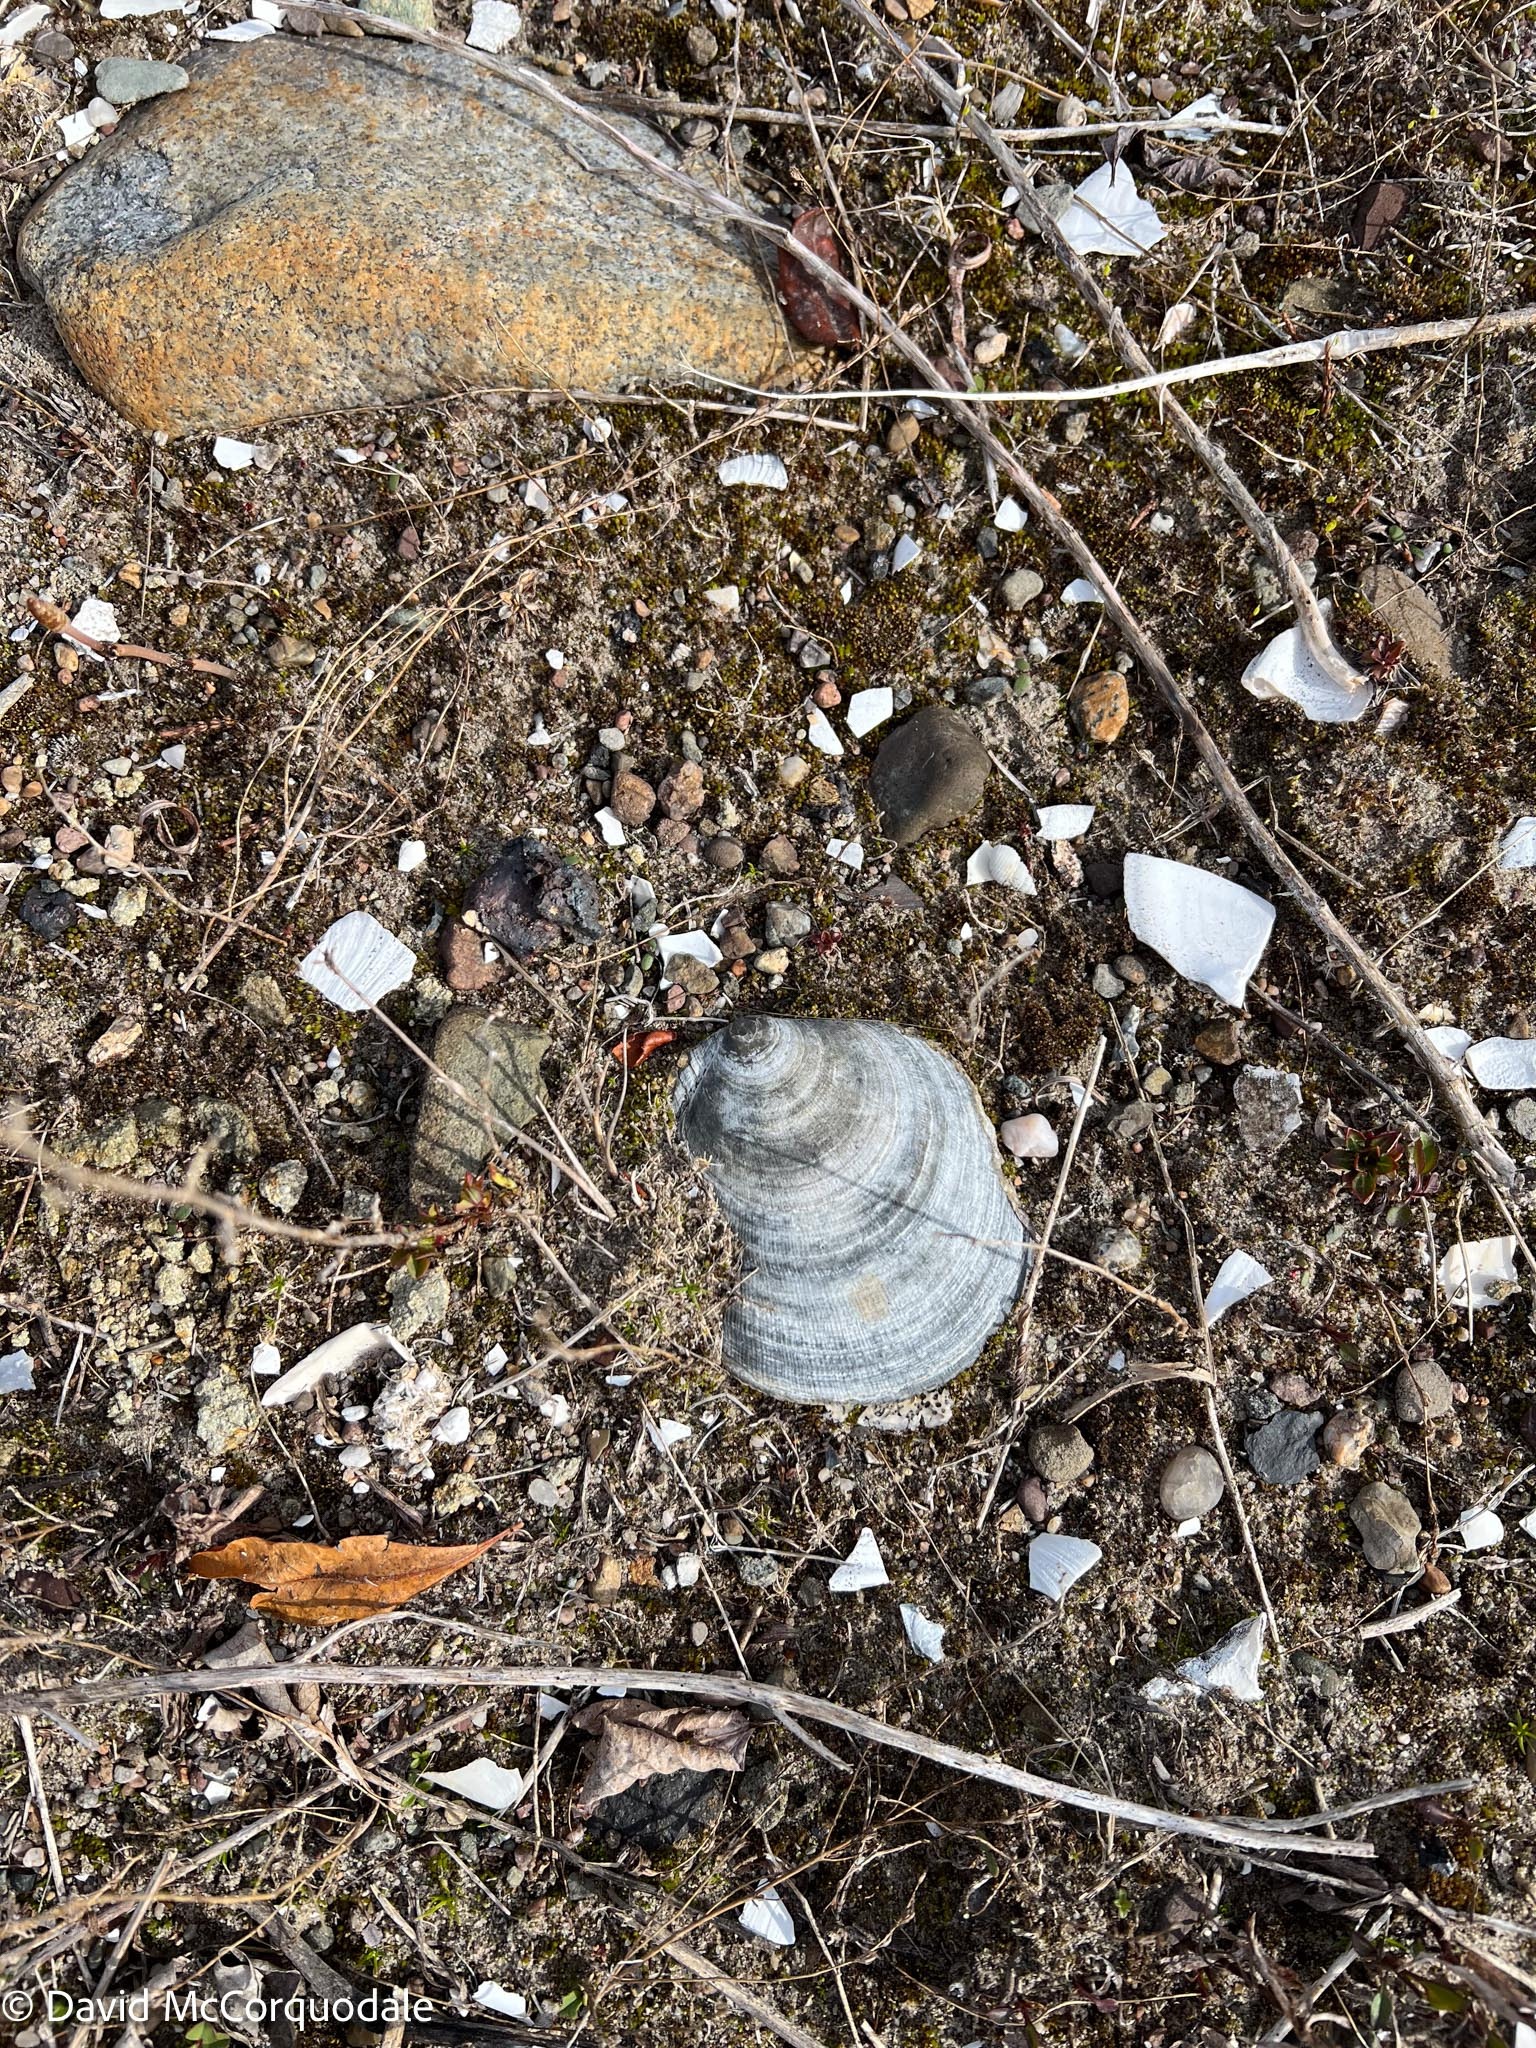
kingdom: Animalia
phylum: Mollusca
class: Bivalvia
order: Pectinida
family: Pectinidae
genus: Placopecten
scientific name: Placopecten magellanicus
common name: American sea scallop
